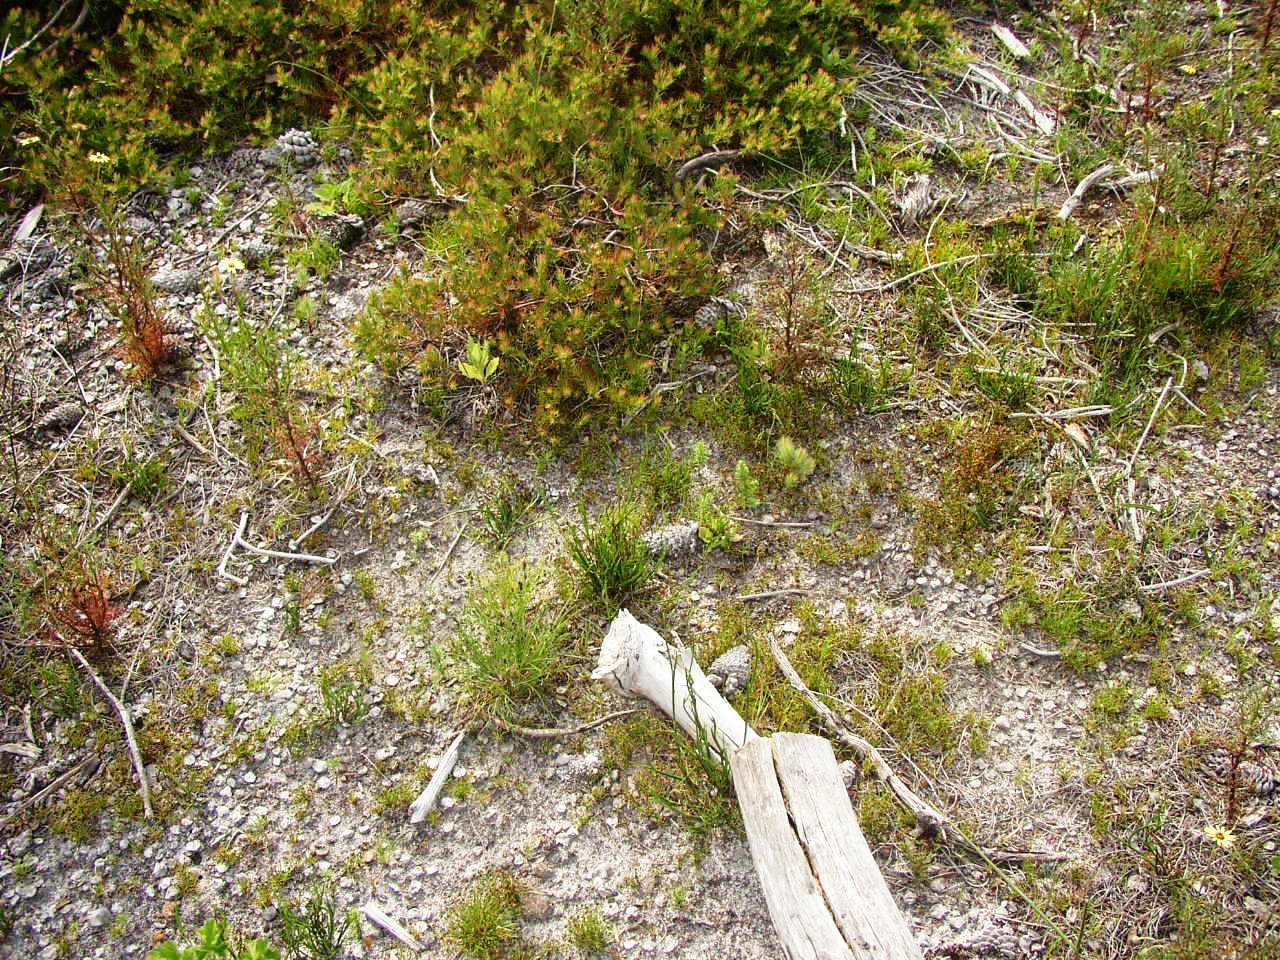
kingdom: Plantae
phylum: Tracheophyta
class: Magnoliopsida
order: Proteales
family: Proteaceae
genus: Diastella
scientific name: Diastella proteoides
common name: Flats silkypuff
